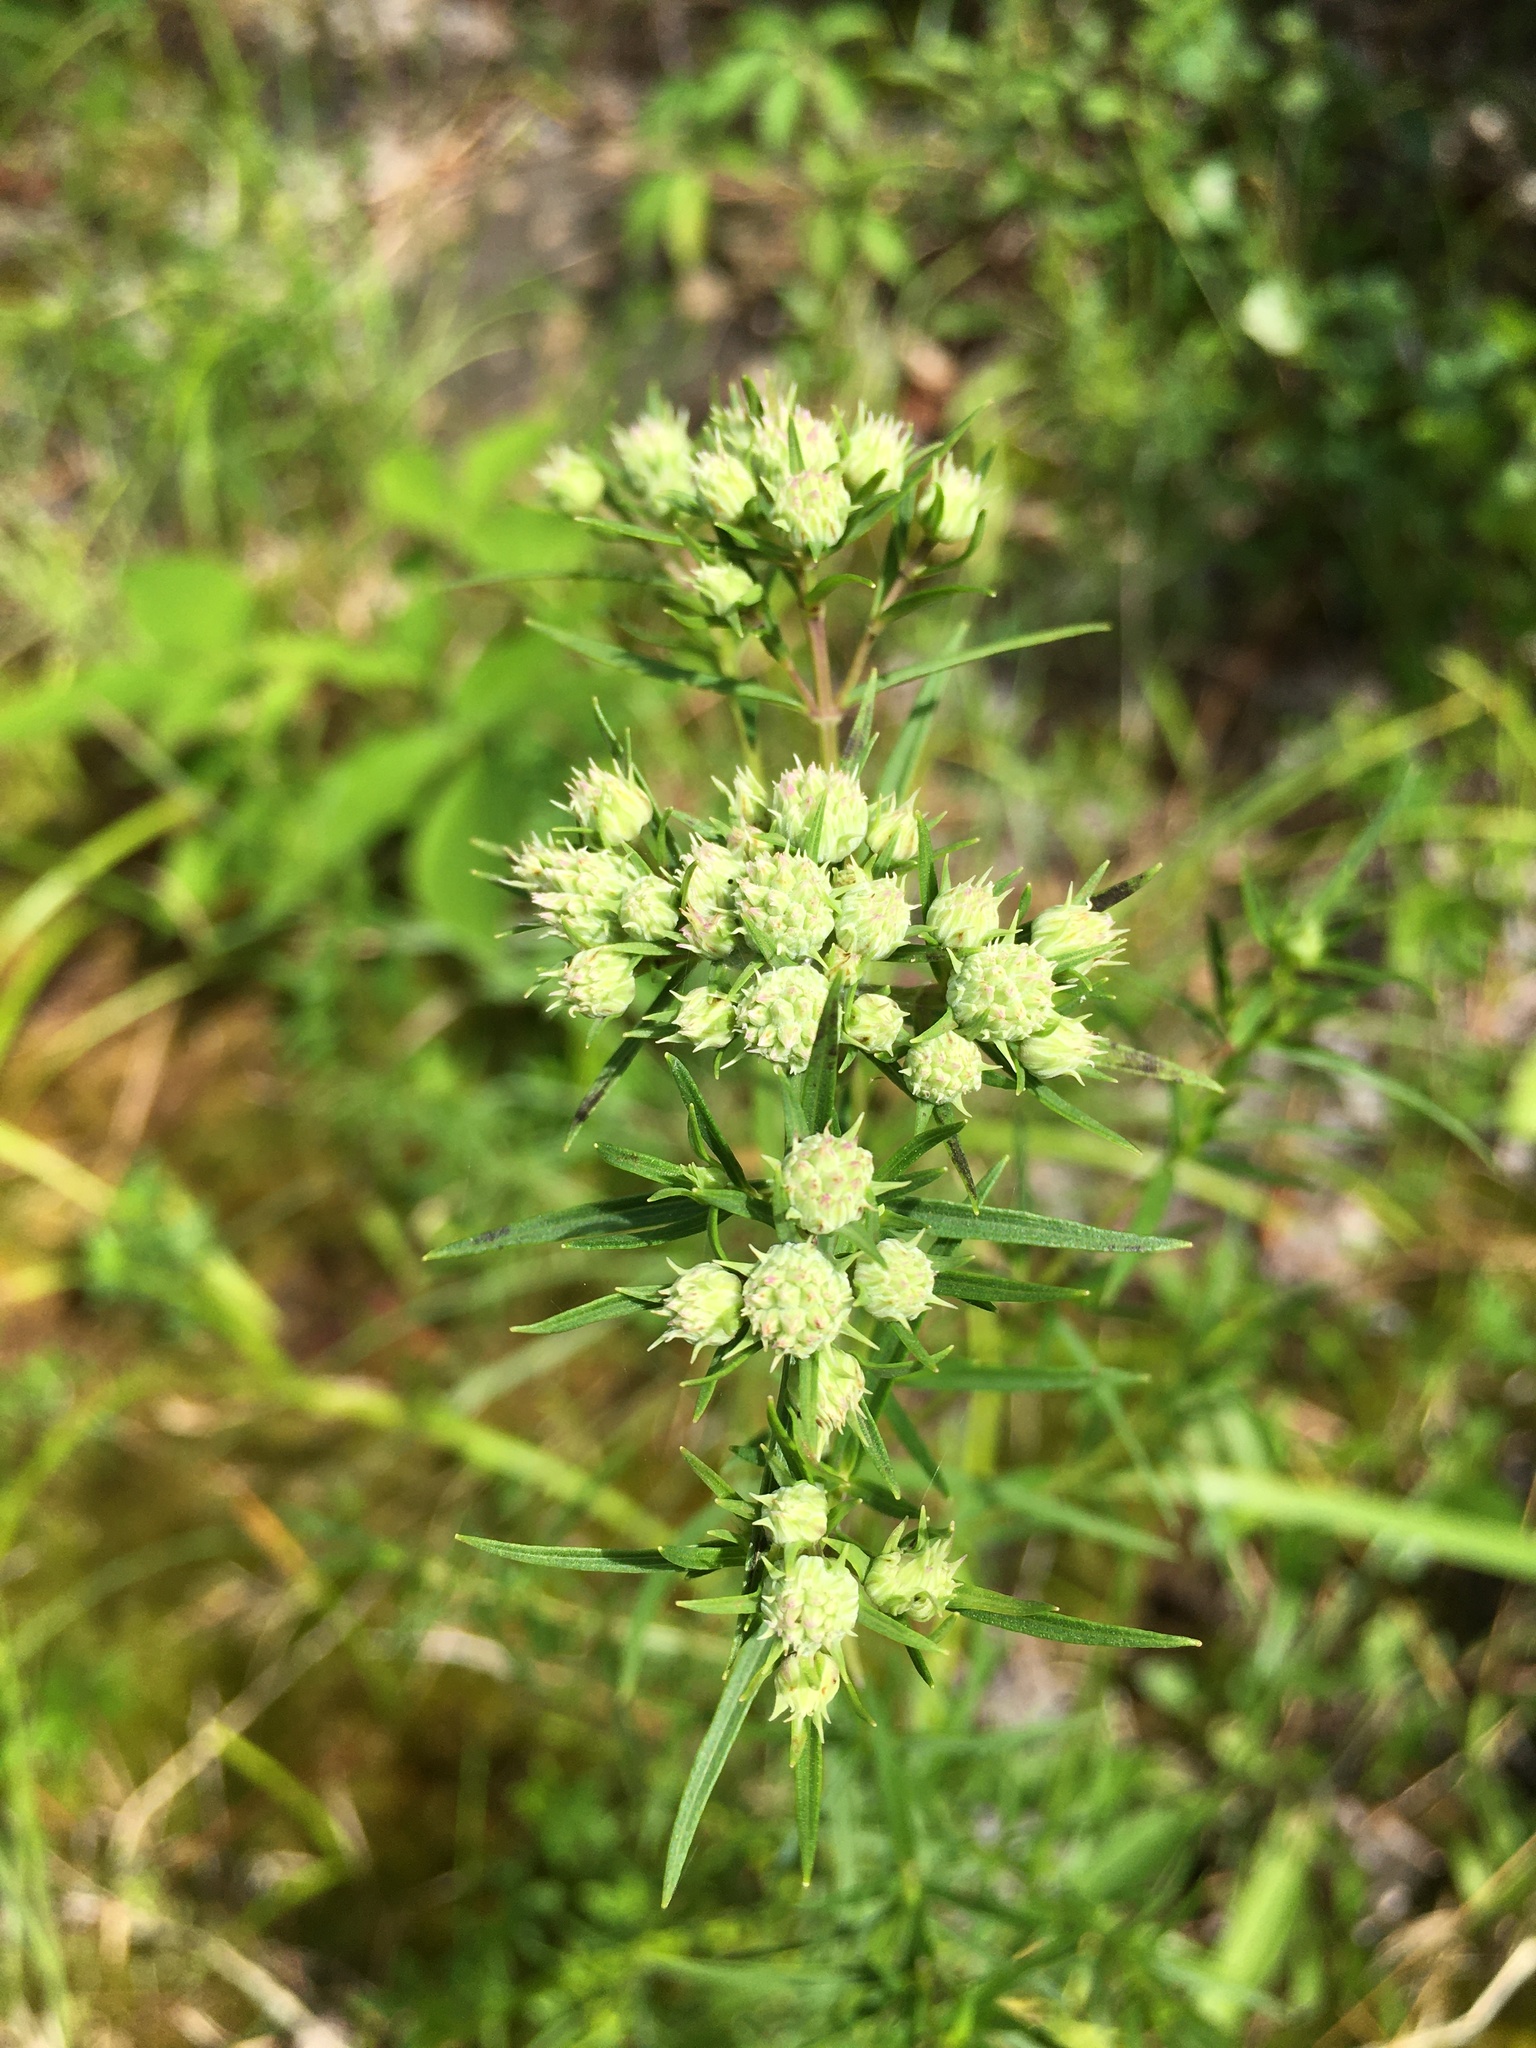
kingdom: Plantae
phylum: Tracheophyta
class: Magnoliopsida
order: Lamiales
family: Lamiaceae
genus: Pycnanthemum
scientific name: Pycnanthemum tenuifolium
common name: Narrow-leaf mountain-mint
